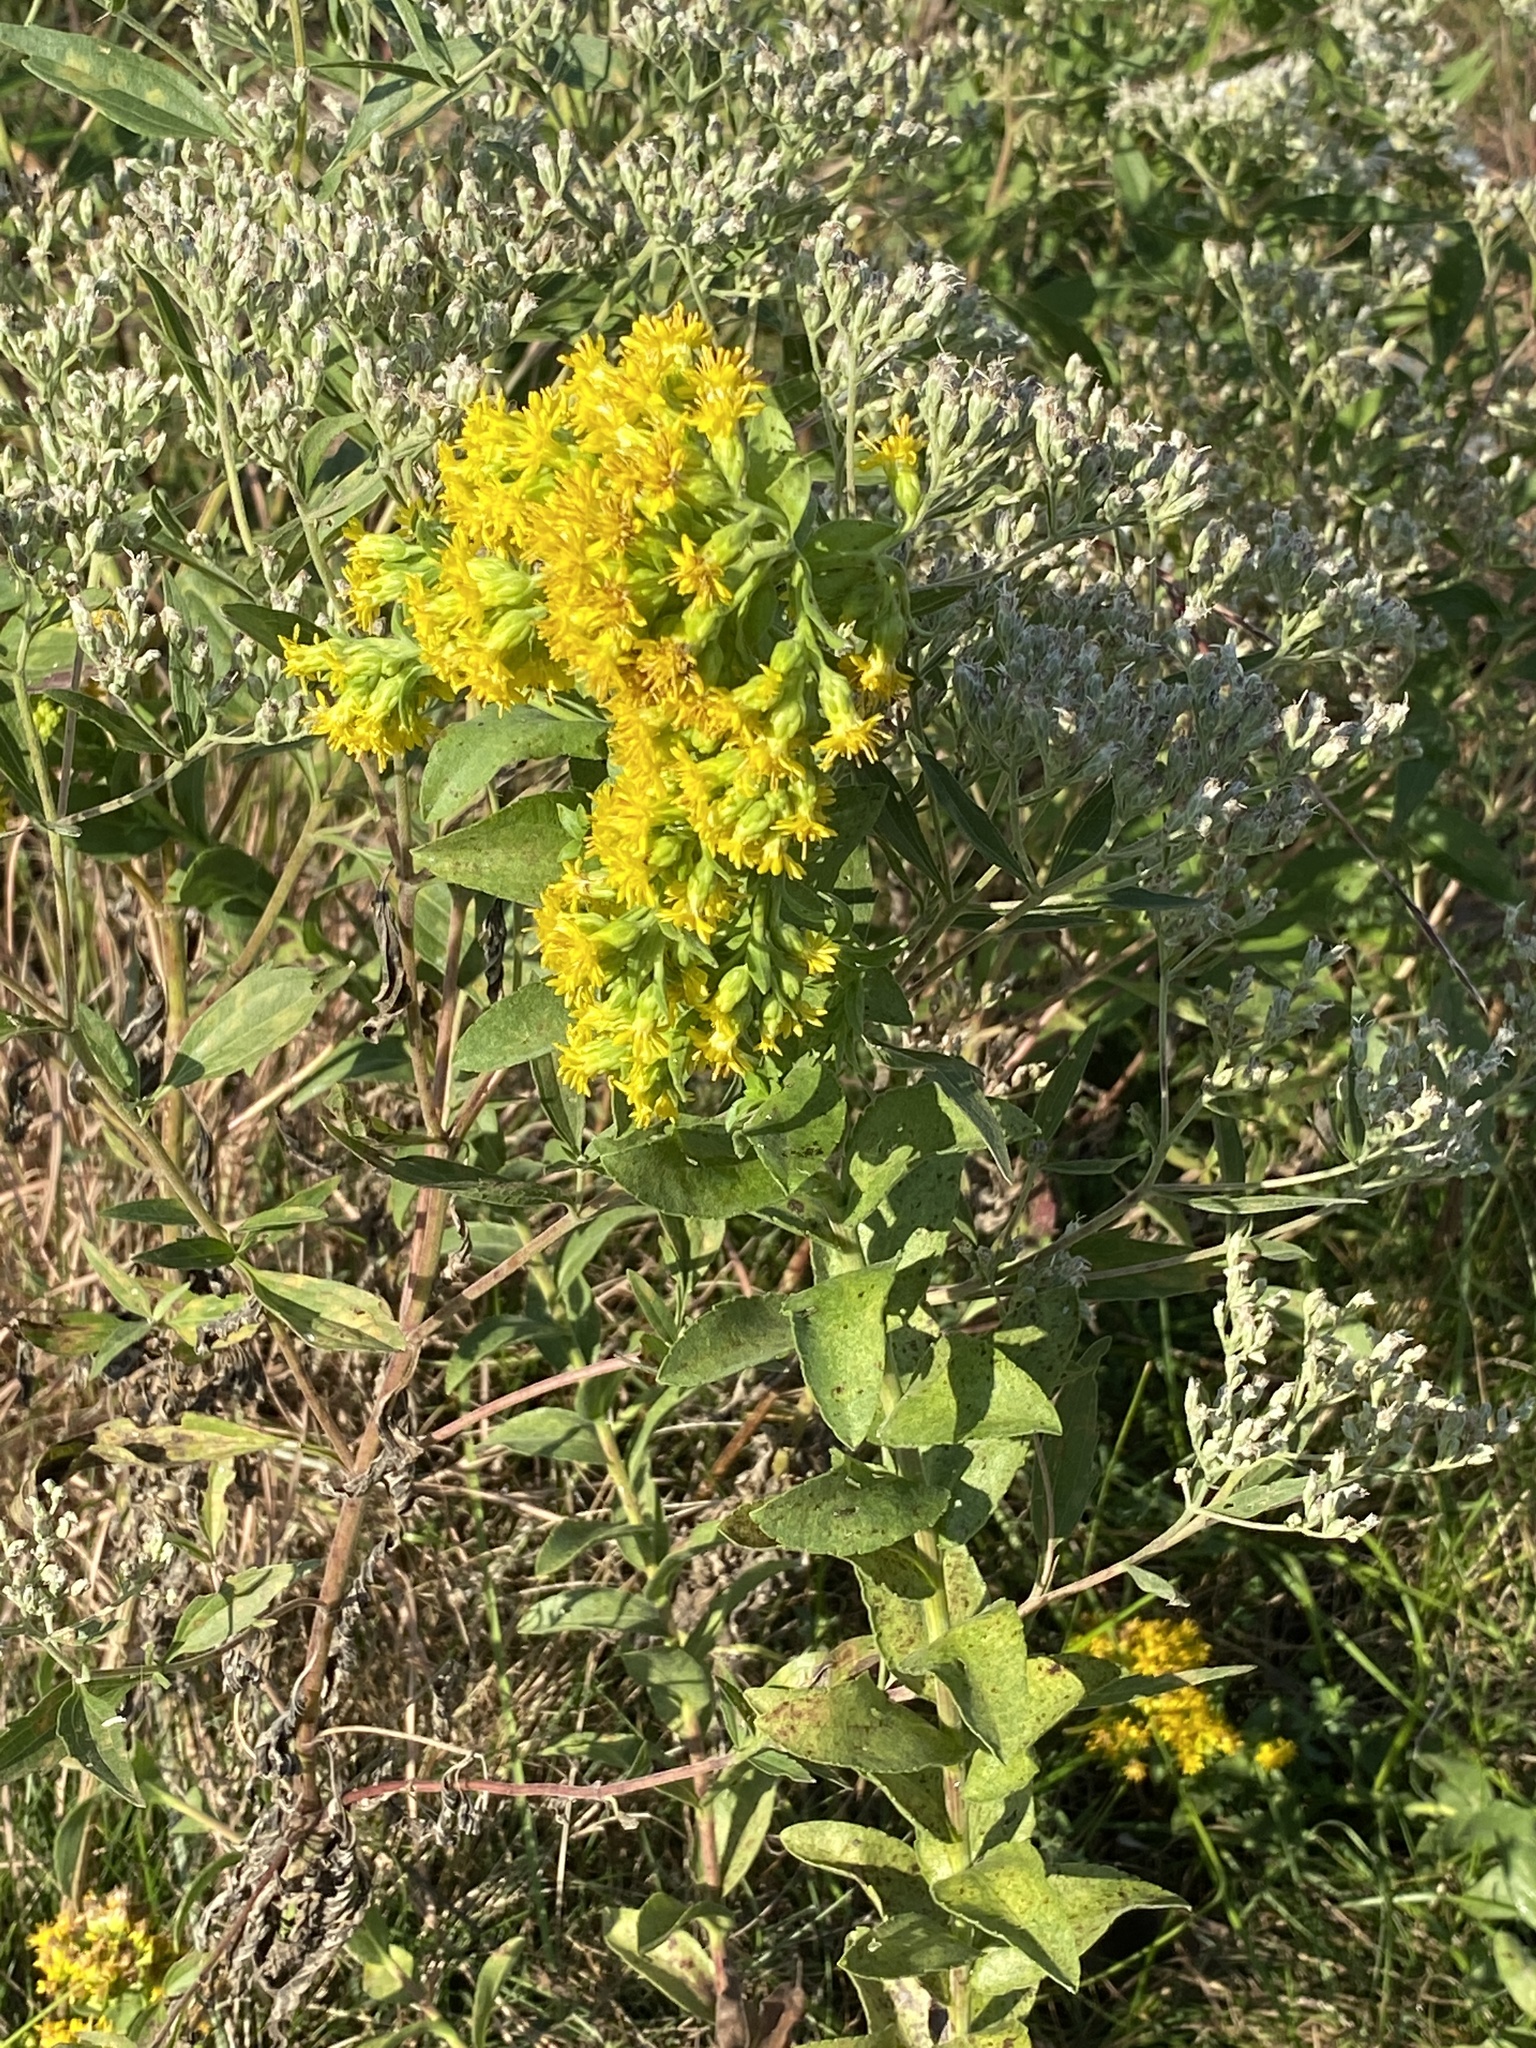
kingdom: Plantae
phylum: Tracheophyta
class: Magnoliopsida
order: Asterales
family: Asteraceae
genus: Solidago
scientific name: Solidago rigida
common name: Rigid goldenrod
